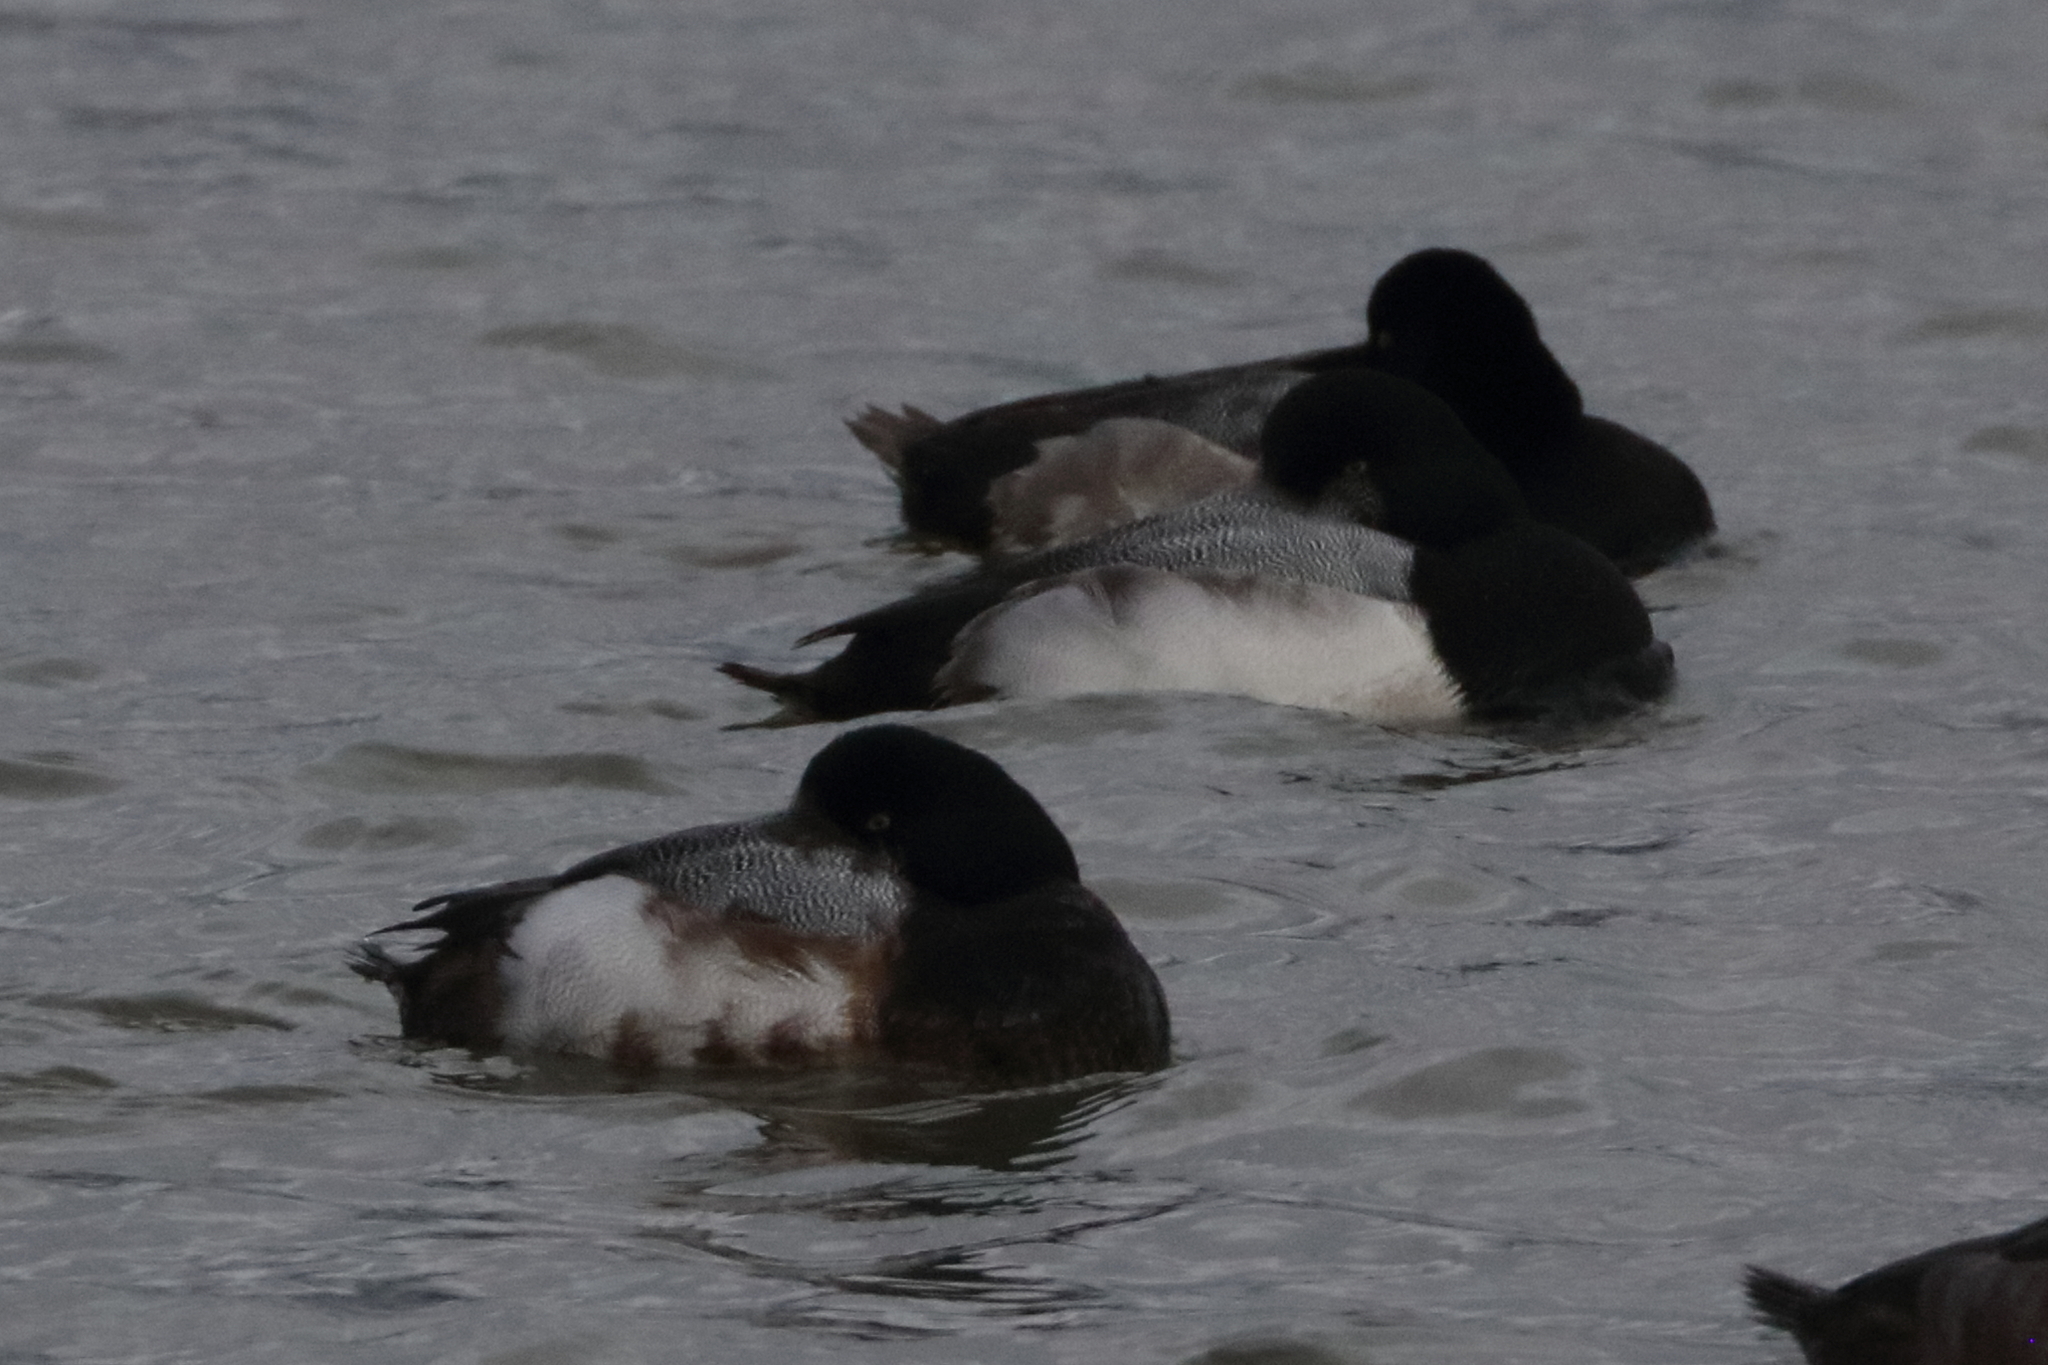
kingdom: Animalia
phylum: Chordata
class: Aves
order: Anseriformes
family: Anatidae
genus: Aythya
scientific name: Aythya marila
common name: Greater scaup
